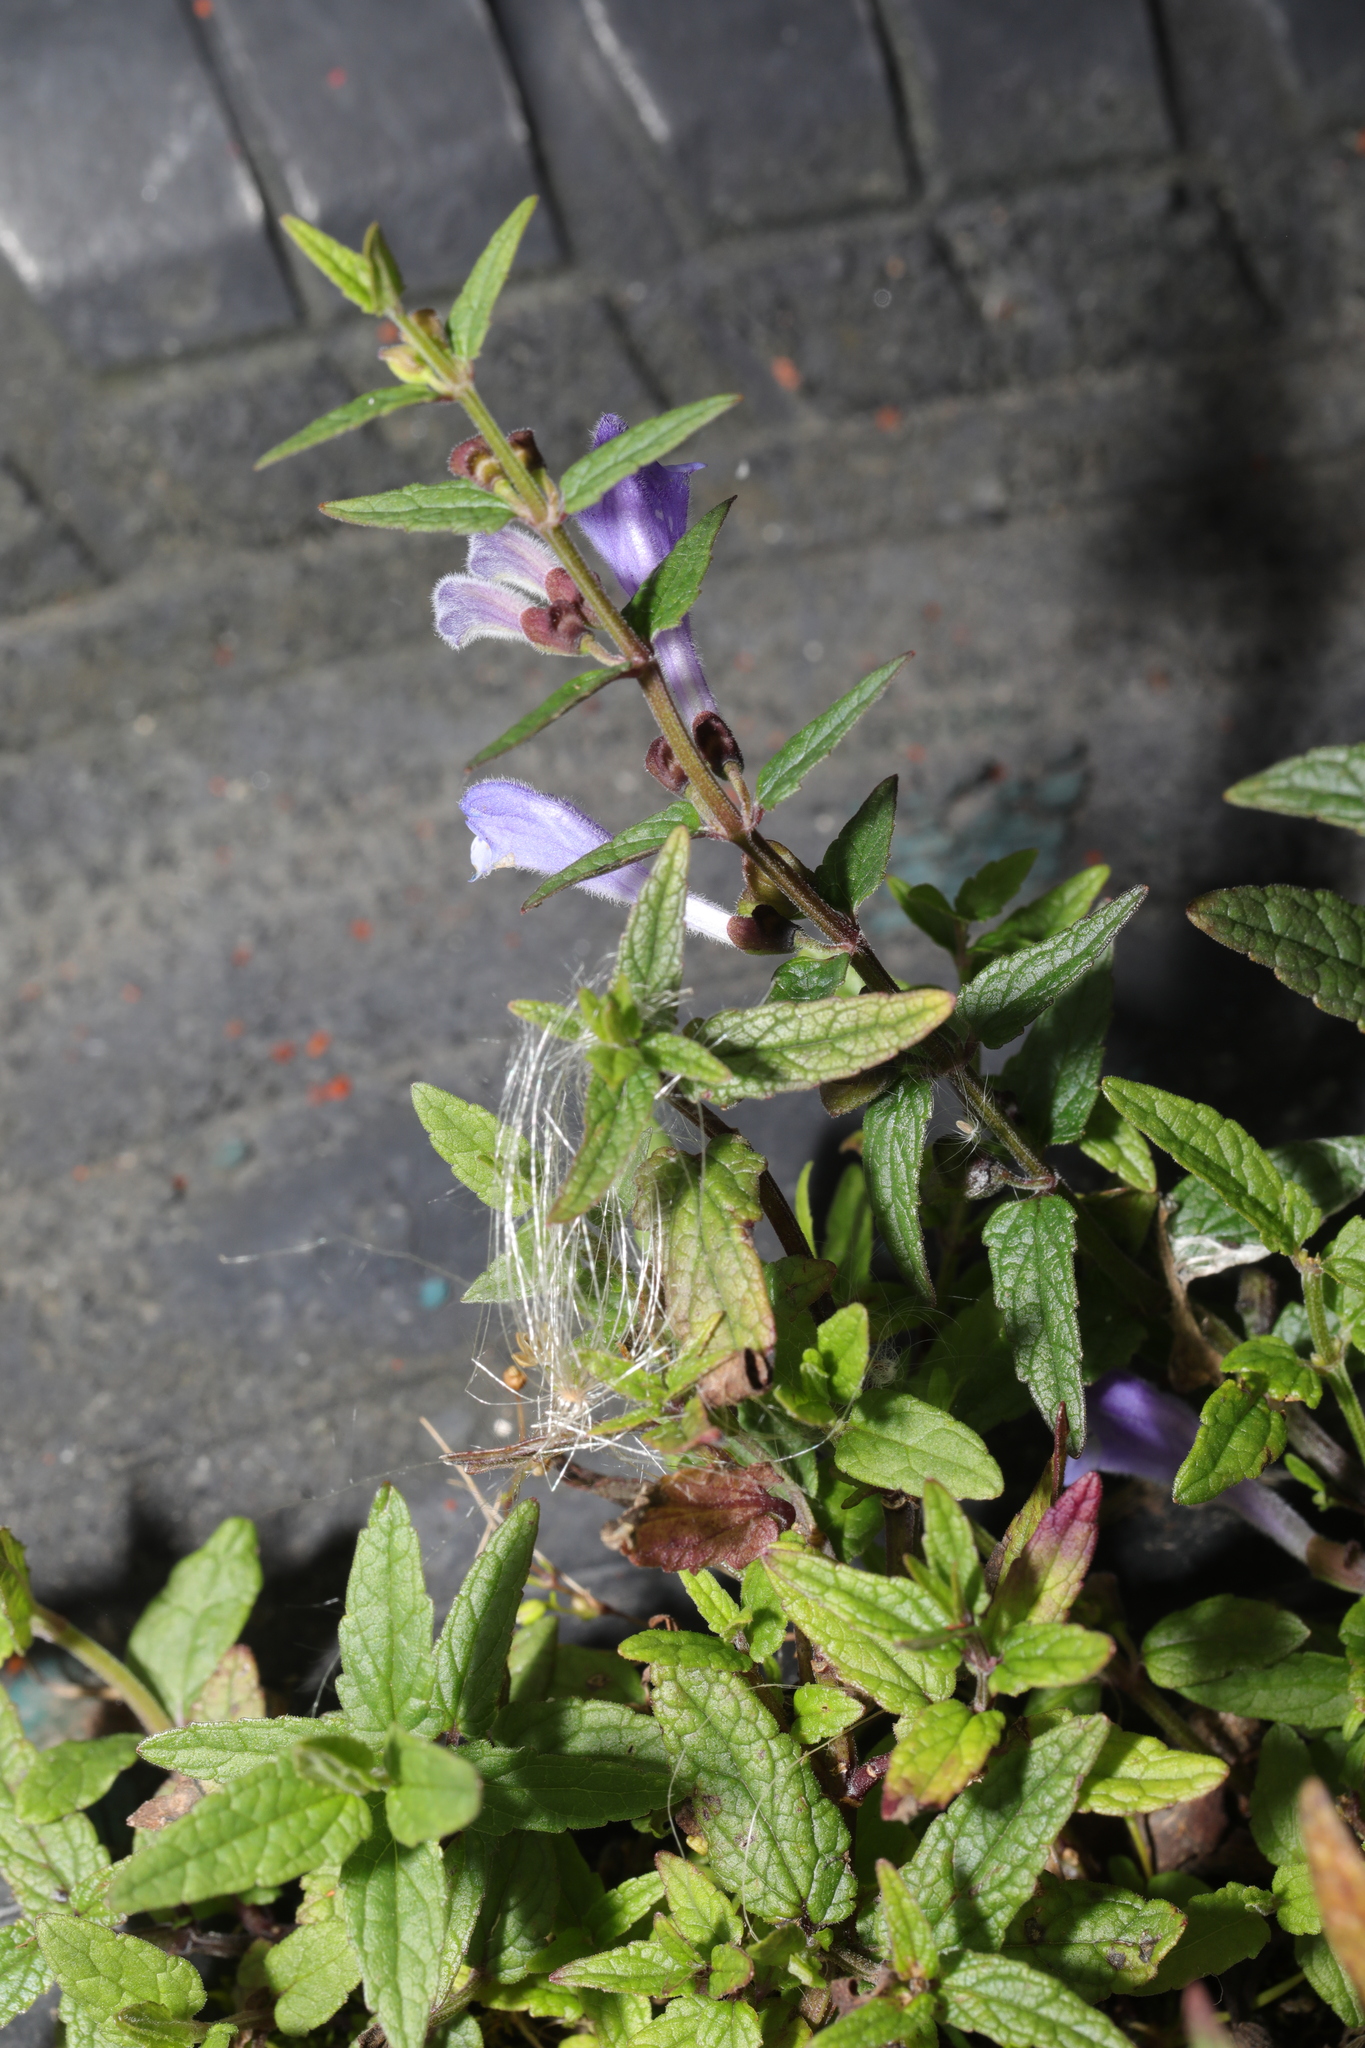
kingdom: Plantae
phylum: Tracheophyta
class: Magnoliopsida
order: Lamiales
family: Lamiaceae
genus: Scutellaria
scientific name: Scutellaria galericulata
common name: Skullcap
